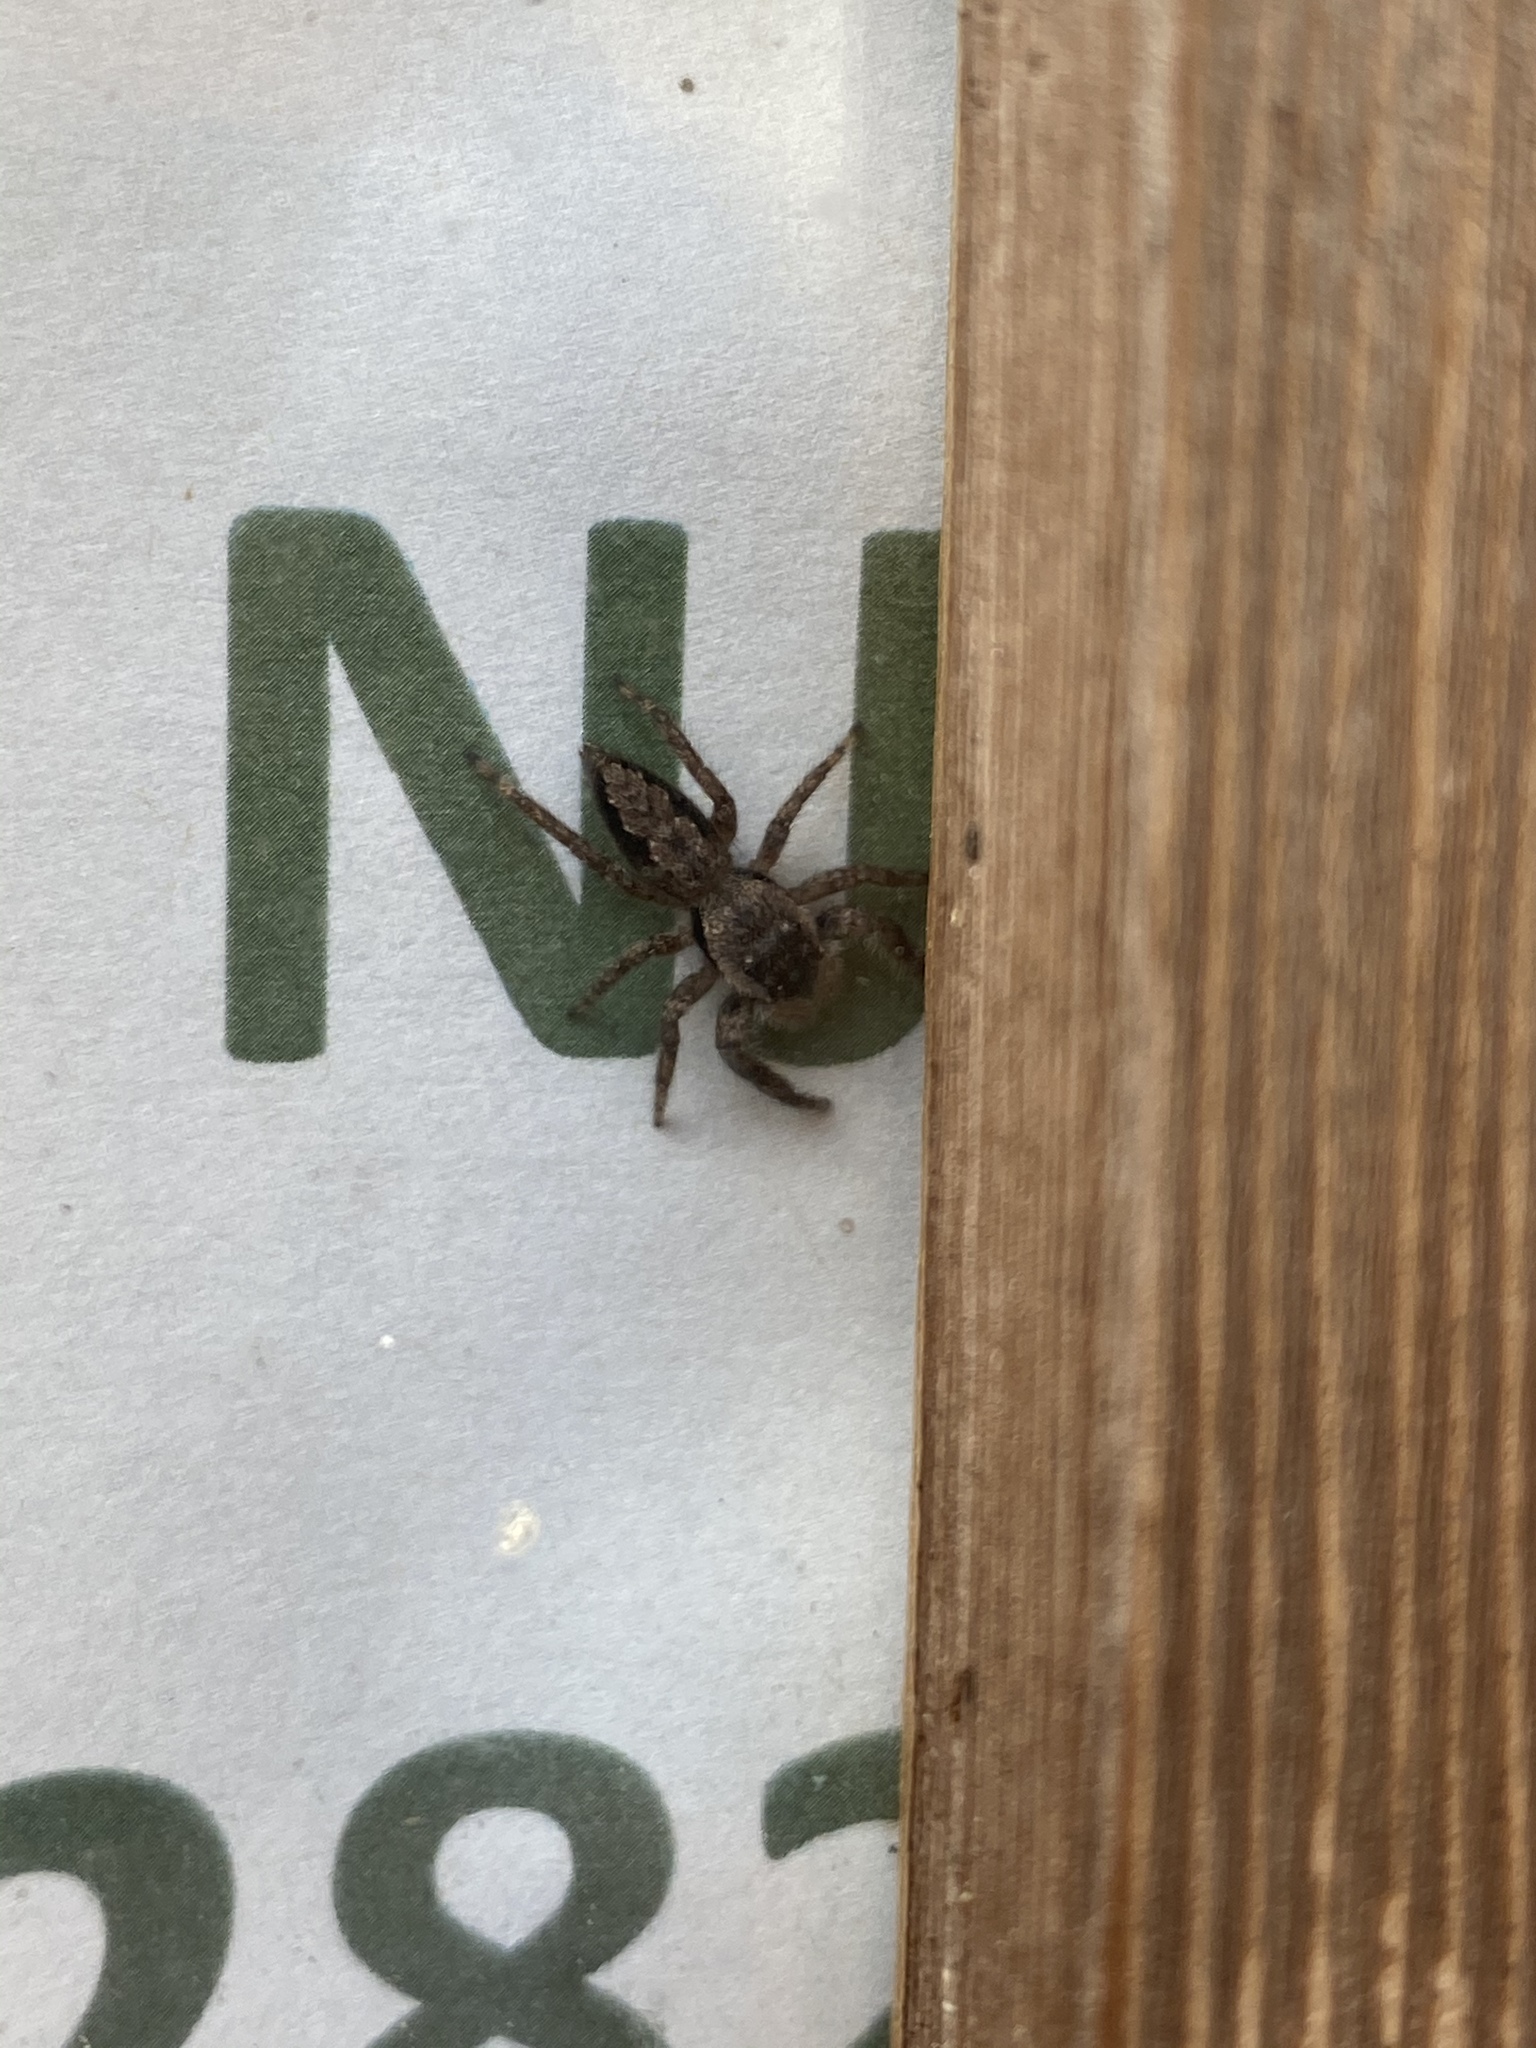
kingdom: Animalia
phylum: Arthropoda
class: Arachnida
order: Araneae
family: Salticidae
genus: Platycryptus
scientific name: Platycryptus undatus
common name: Tan jumping spider
